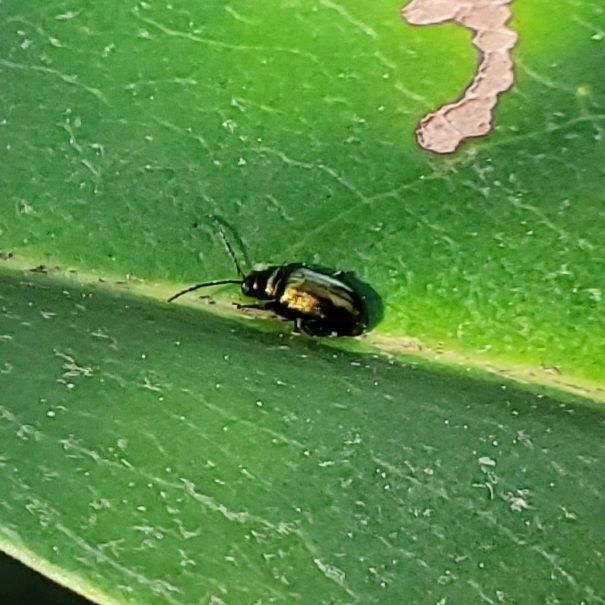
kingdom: Animalia
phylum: Arthropoda
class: Insecta
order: Coleoptera
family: Chrysomelidae
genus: Altica
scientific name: Altica
